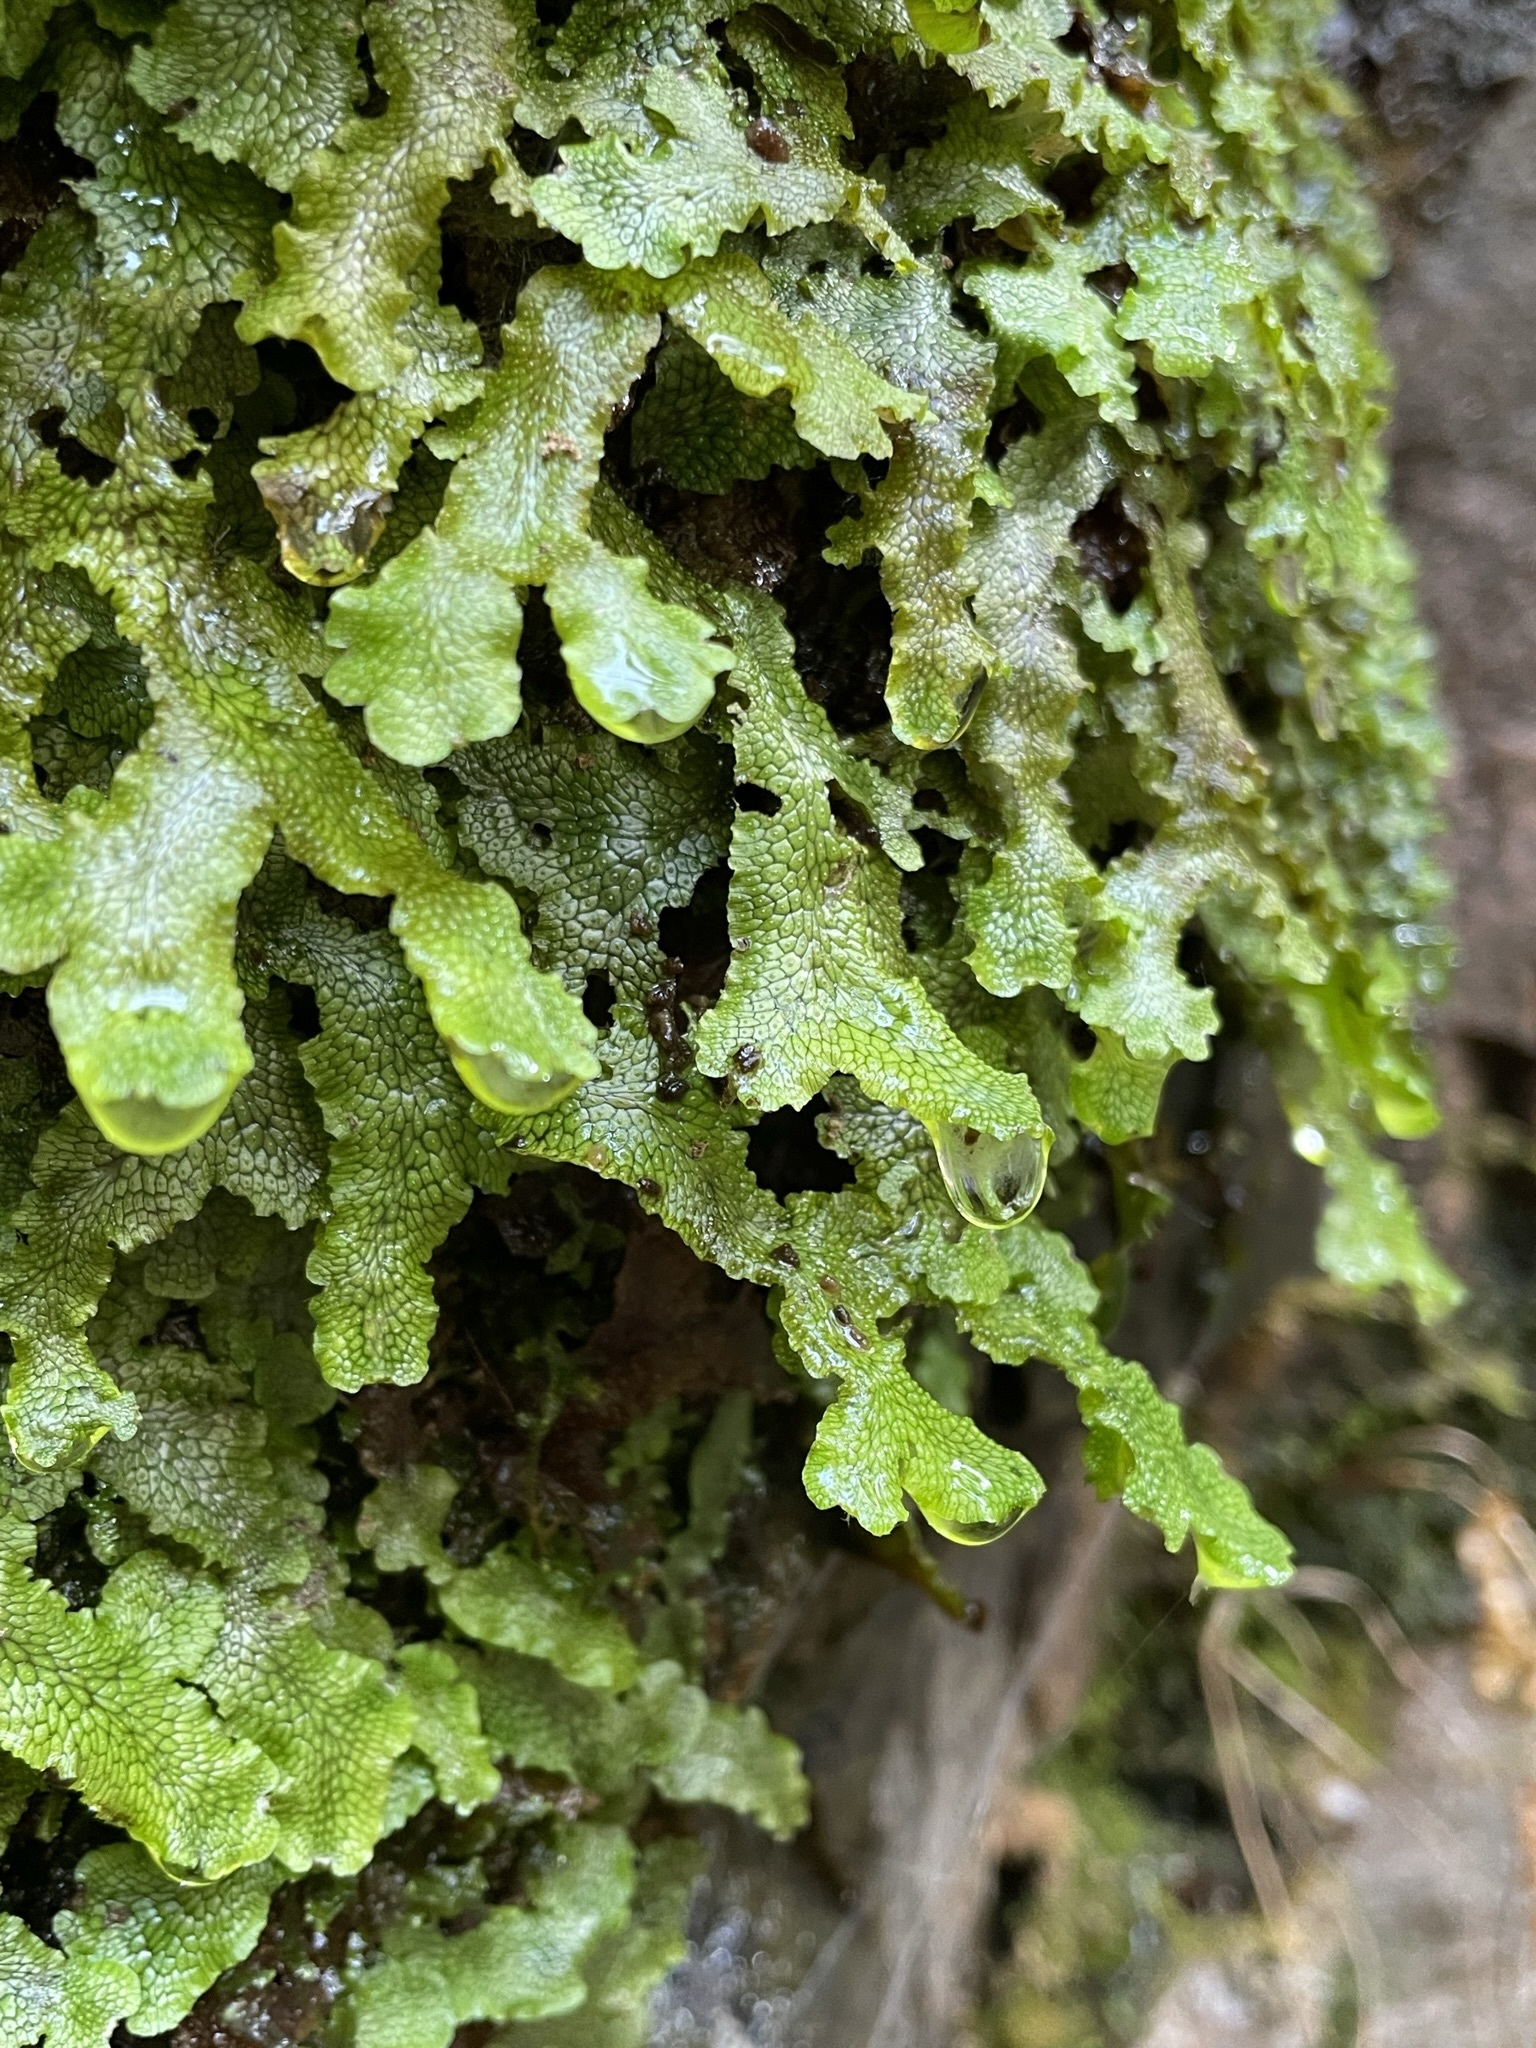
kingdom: Plantae
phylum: Marchantiophyta
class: Marchantiopsida
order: Marchantiales
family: Conocephalaceae
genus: Conocephalum
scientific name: Conocephalum salebrosum
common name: Cat-tongue liverwort
